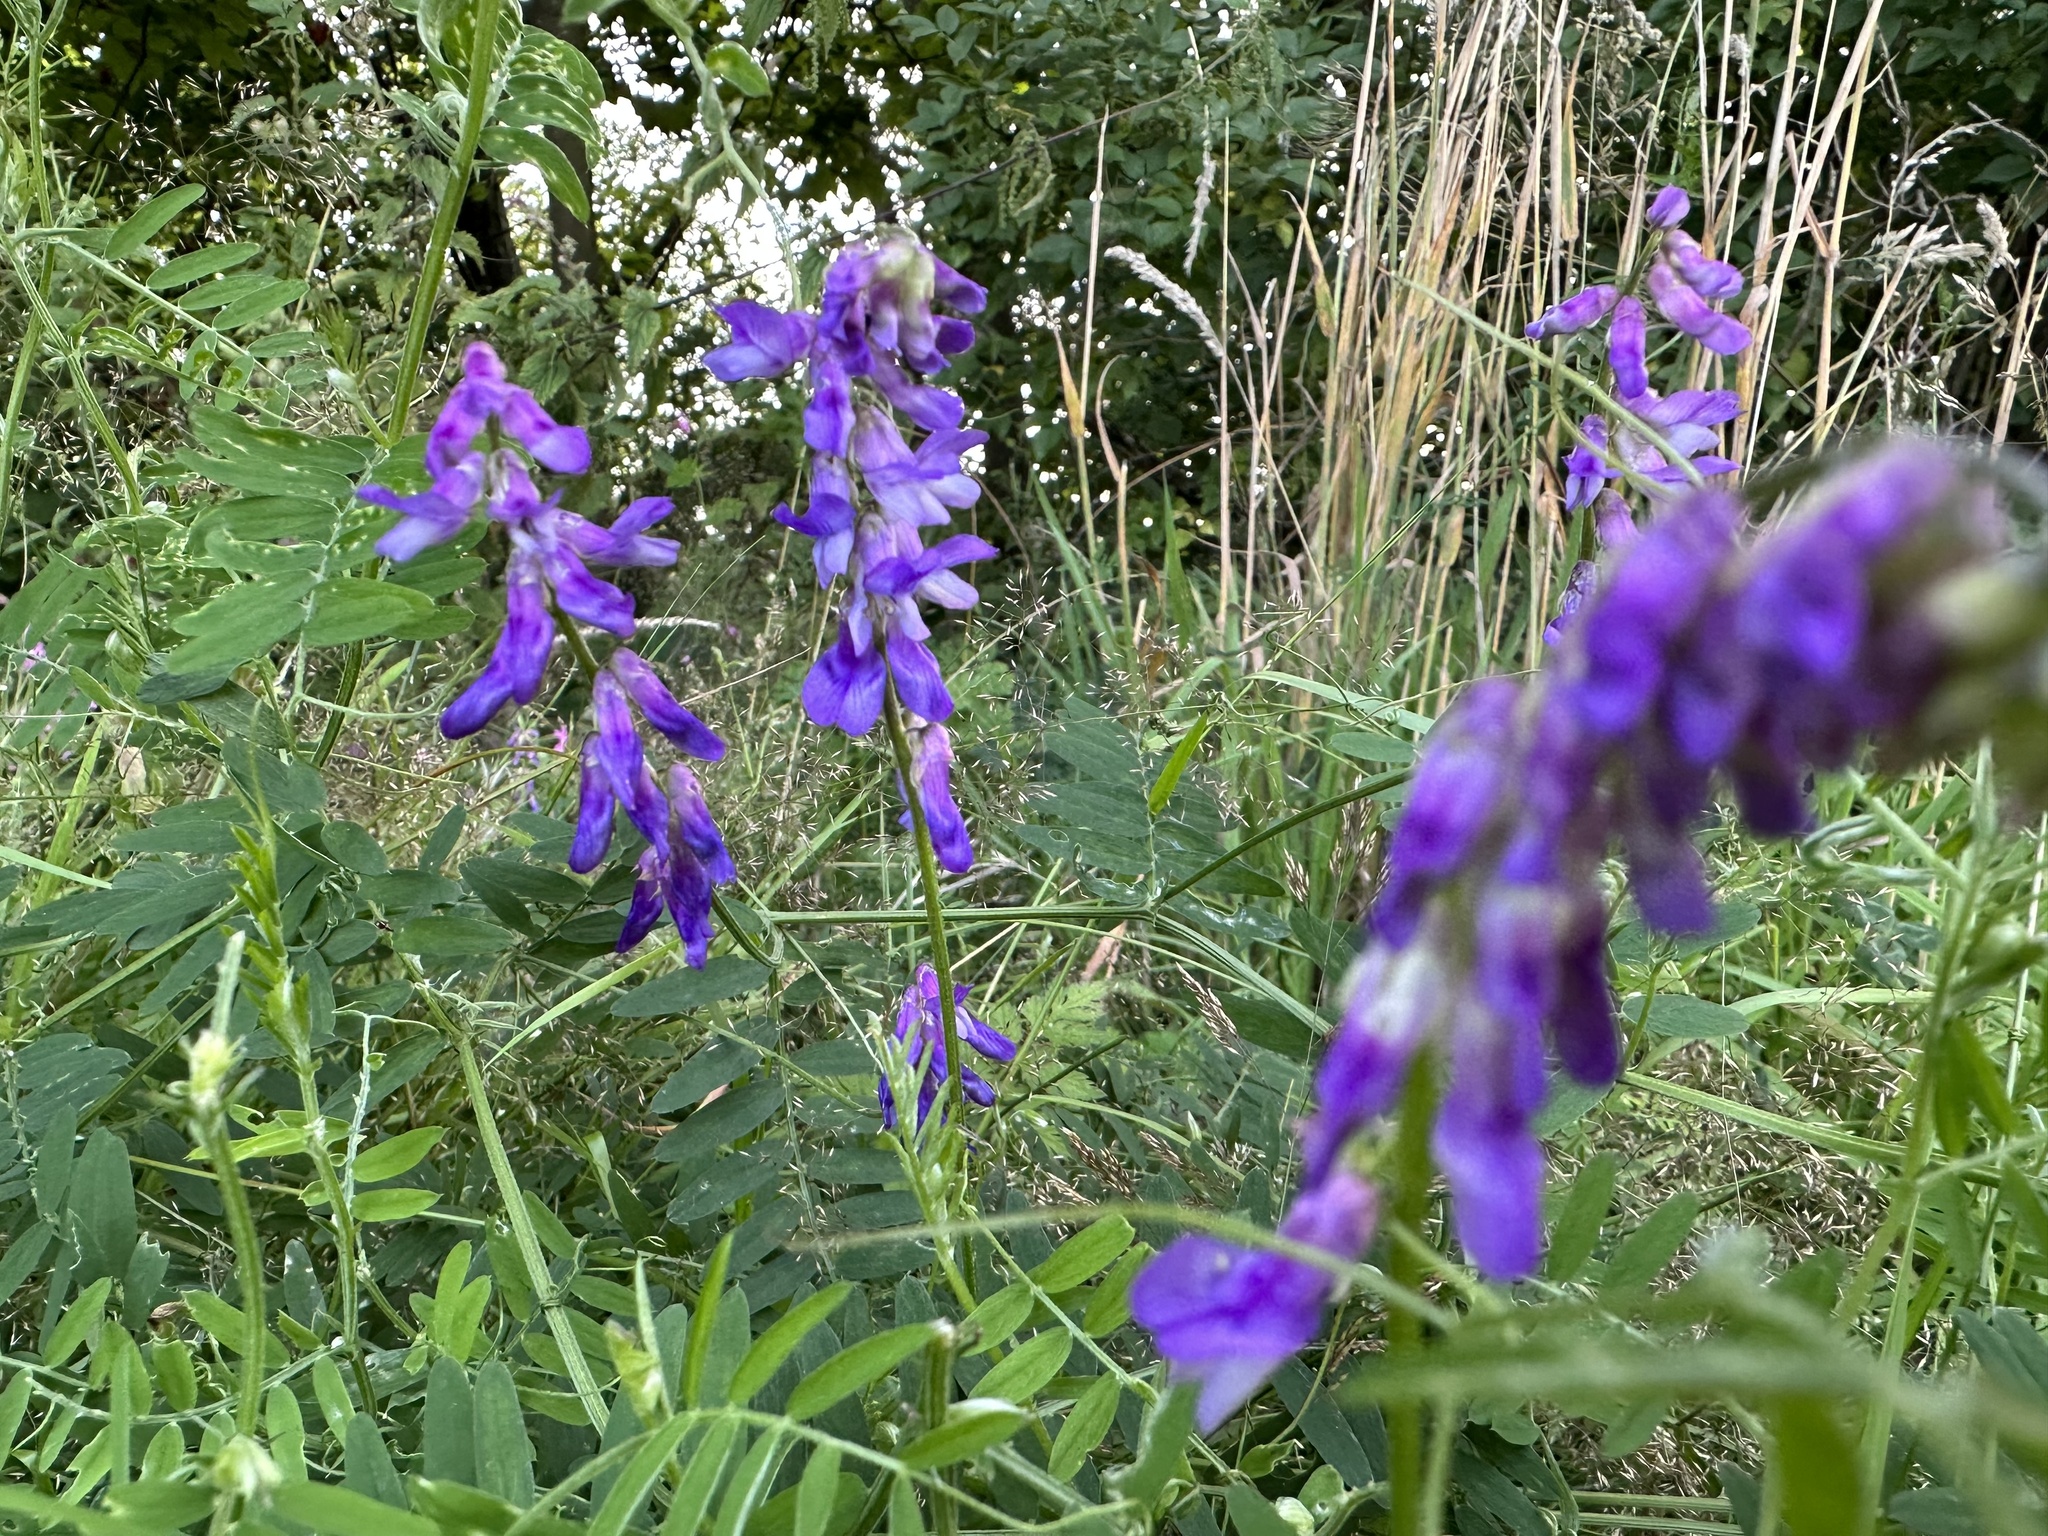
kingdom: Plantae
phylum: Tracheophyta
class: Magnoliopsida
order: Fabales
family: Fabaceae
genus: Vicia
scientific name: Vicia cracca
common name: Bird vetch
